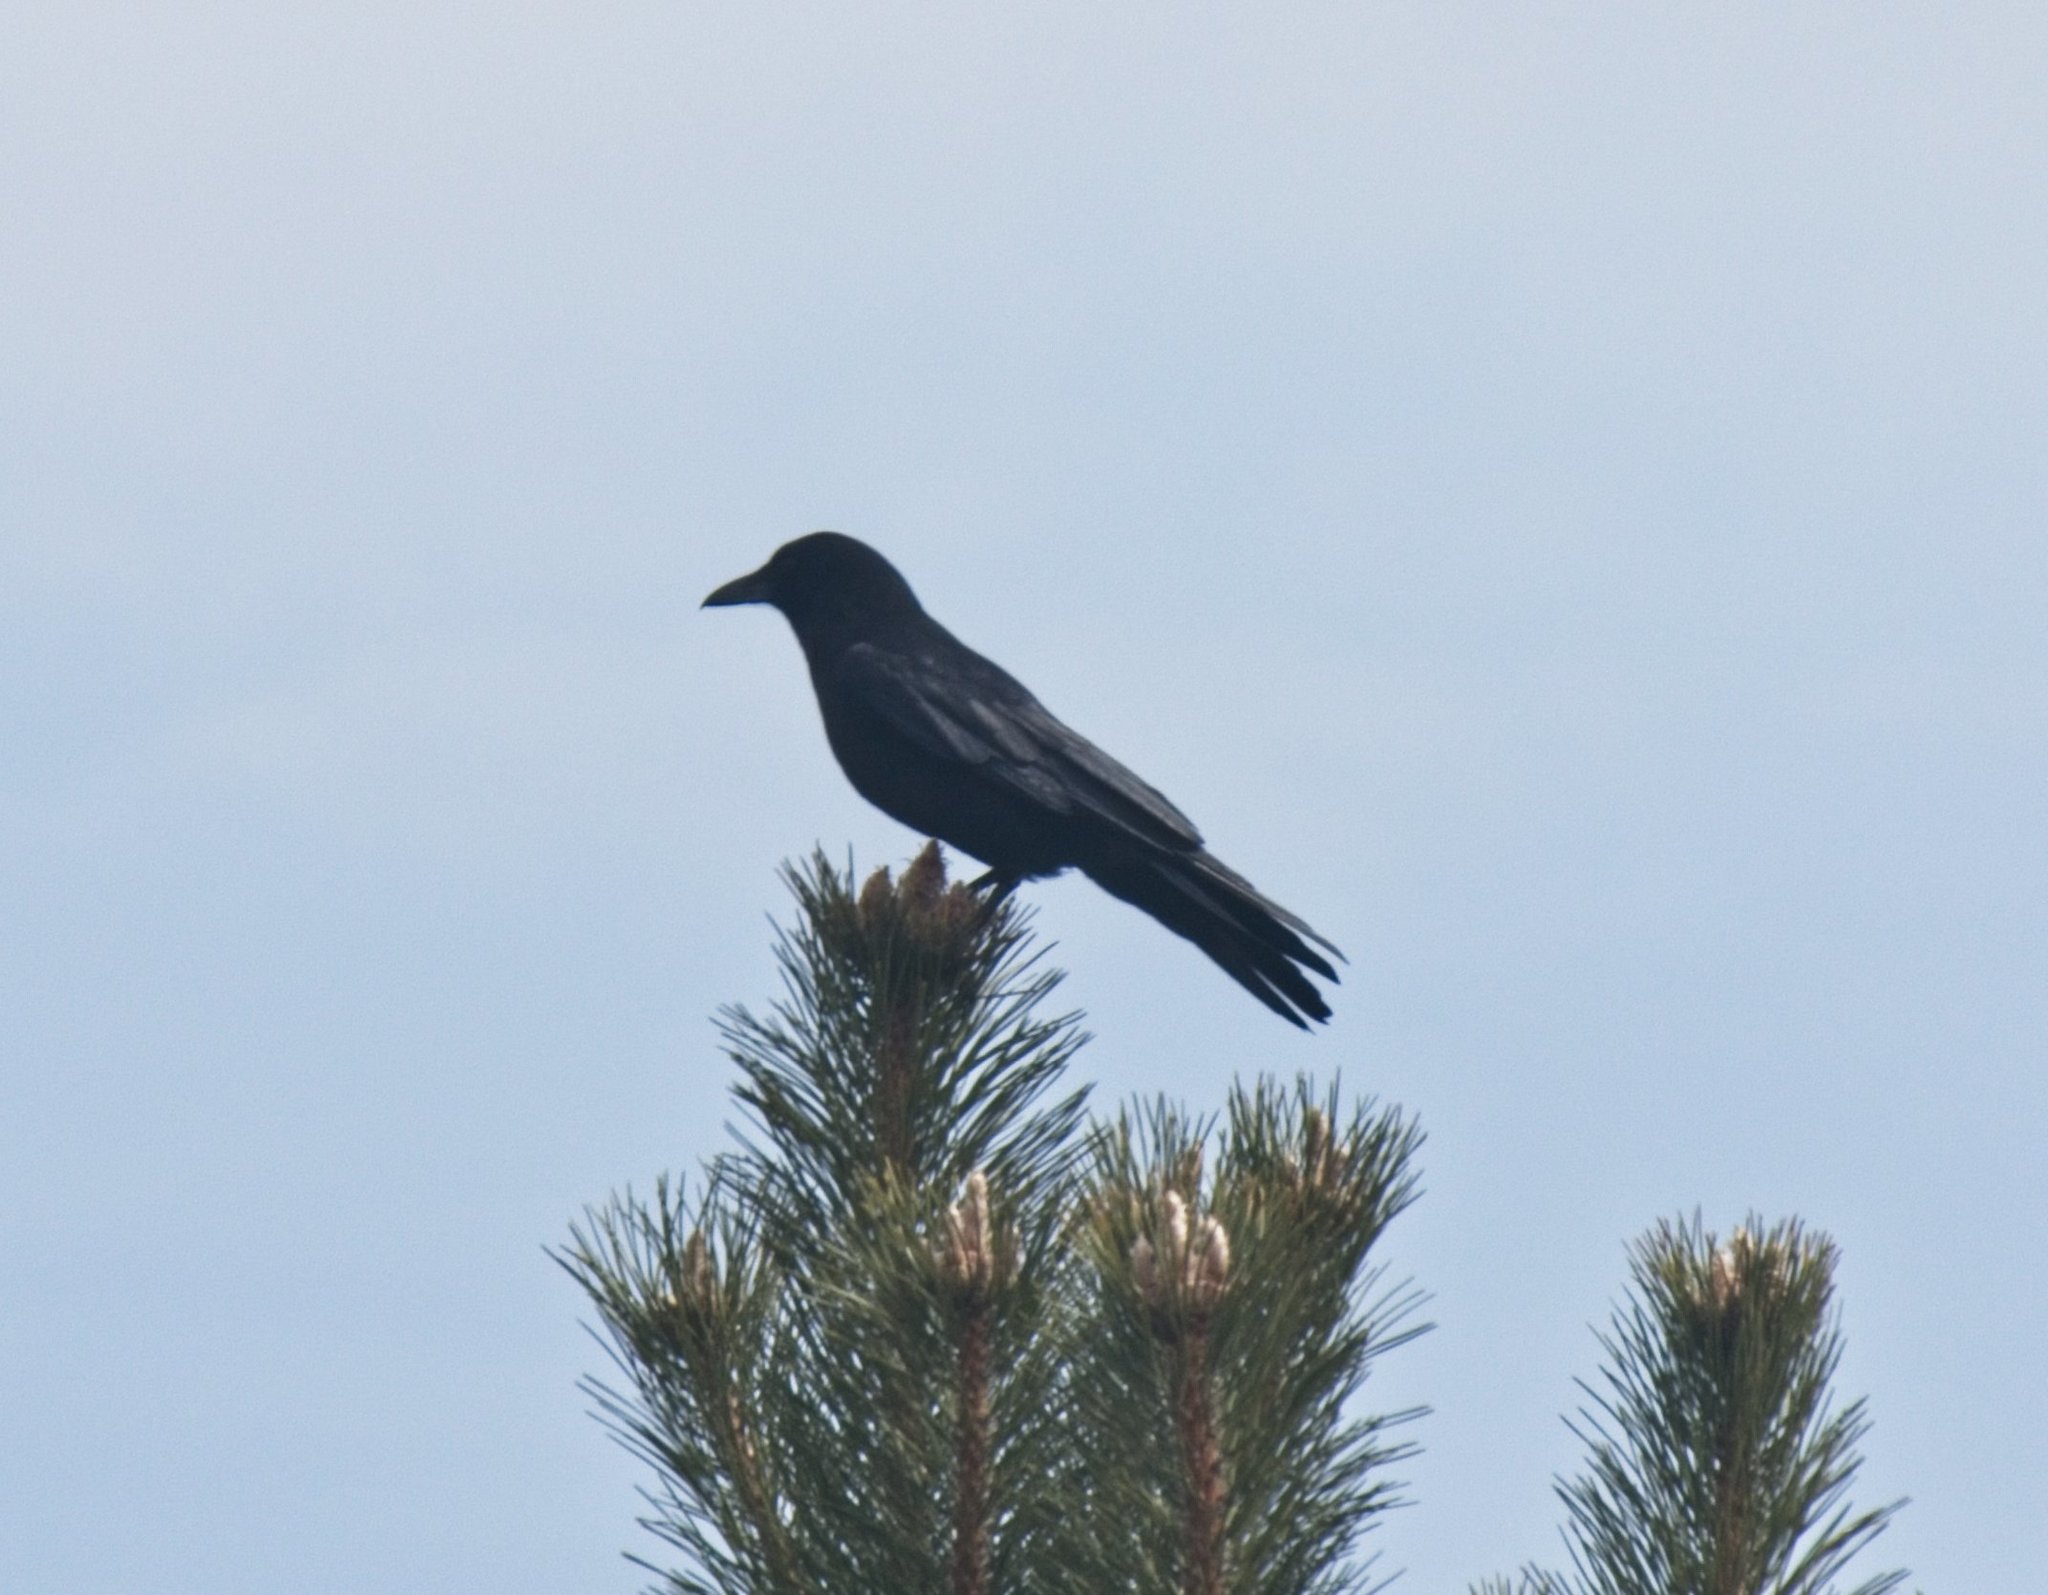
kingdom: Animalia
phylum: Chordata
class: Aves
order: Passeriformes
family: Corvidae
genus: Corvus
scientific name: Corvus brachyrhynchos
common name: American crow
